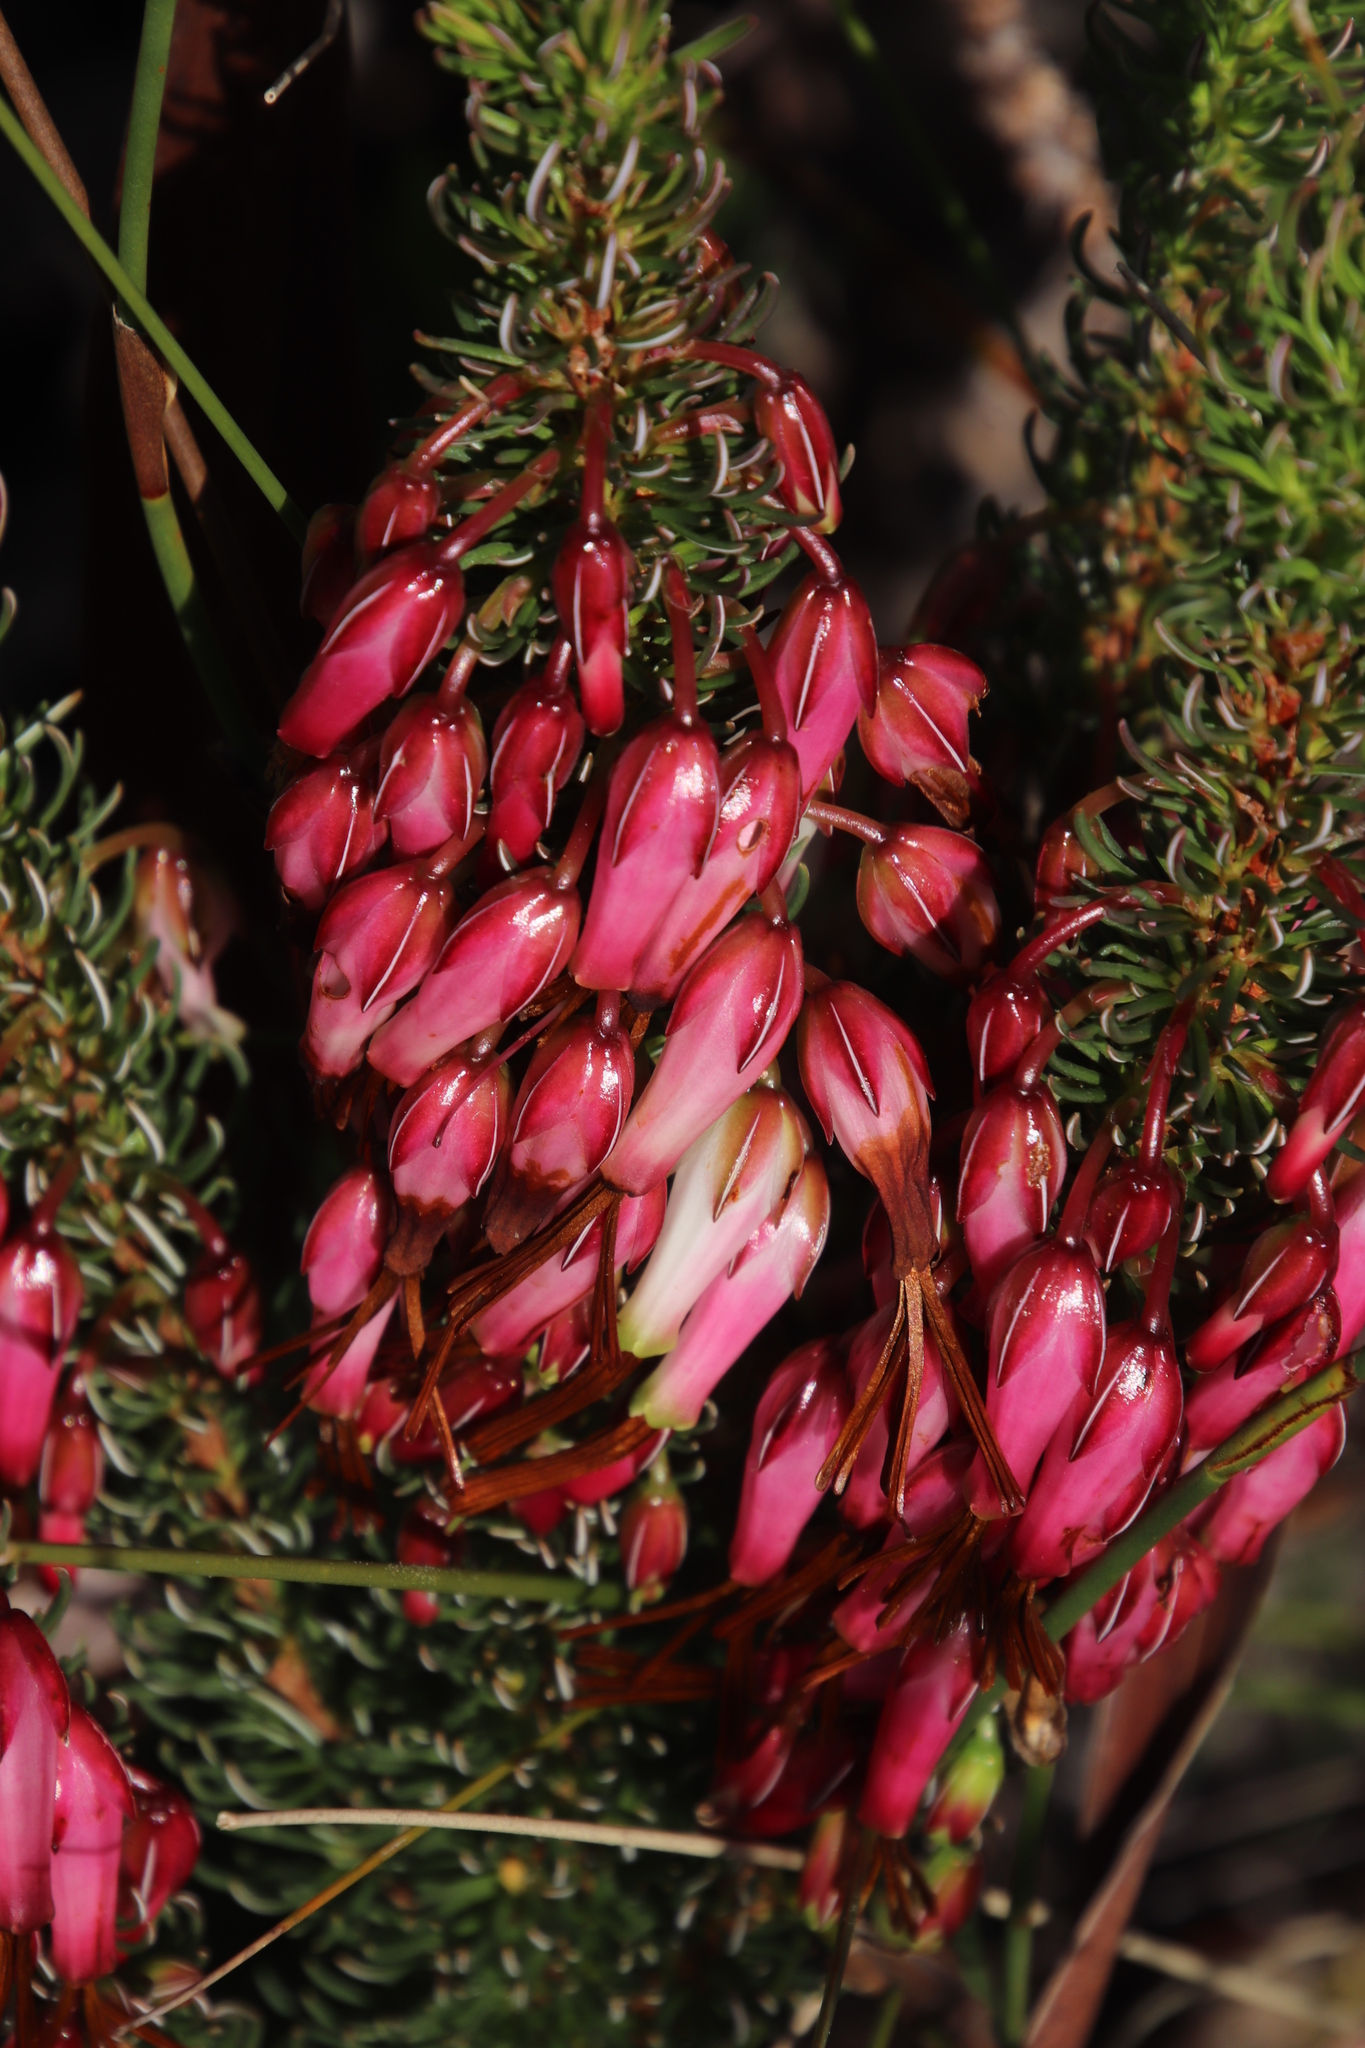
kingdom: Plantae
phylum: Tracheophyta
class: Magnoliopsida
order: Ericales
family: Ericaceae
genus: Erica
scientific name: Erica plukenetii
